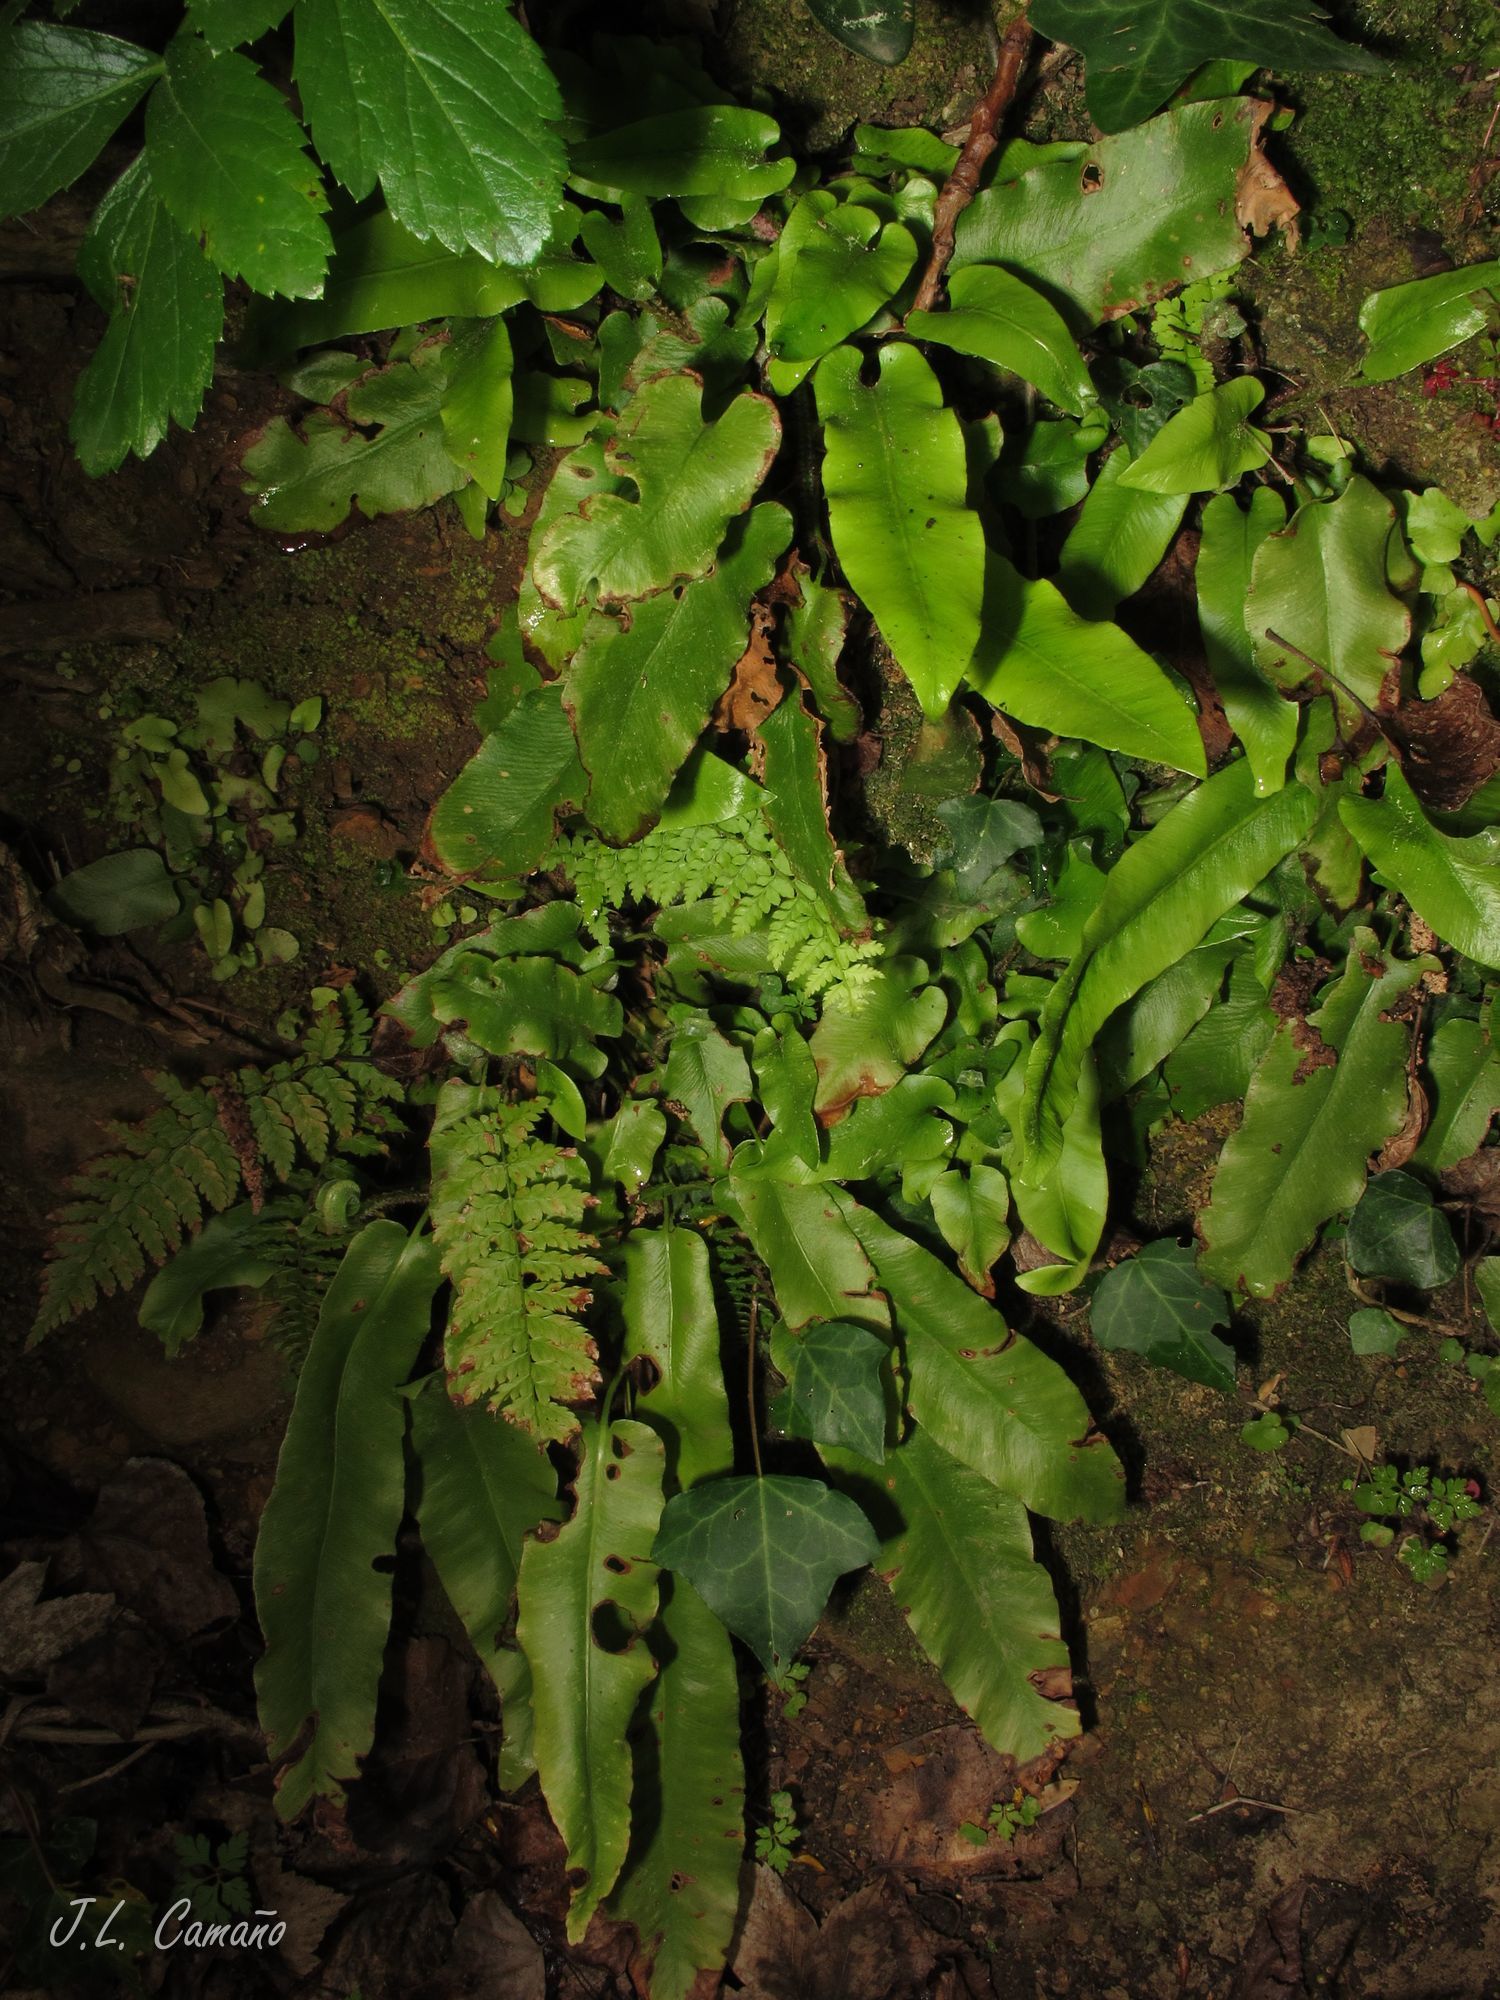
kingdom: Plantae
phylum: Tracheophyta
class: Polypodiopsida
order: Polypodiales
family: Aspleniaceae
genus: Asplenium
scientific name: Asplenium scolopendrium
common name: Hart's-tongue fern
